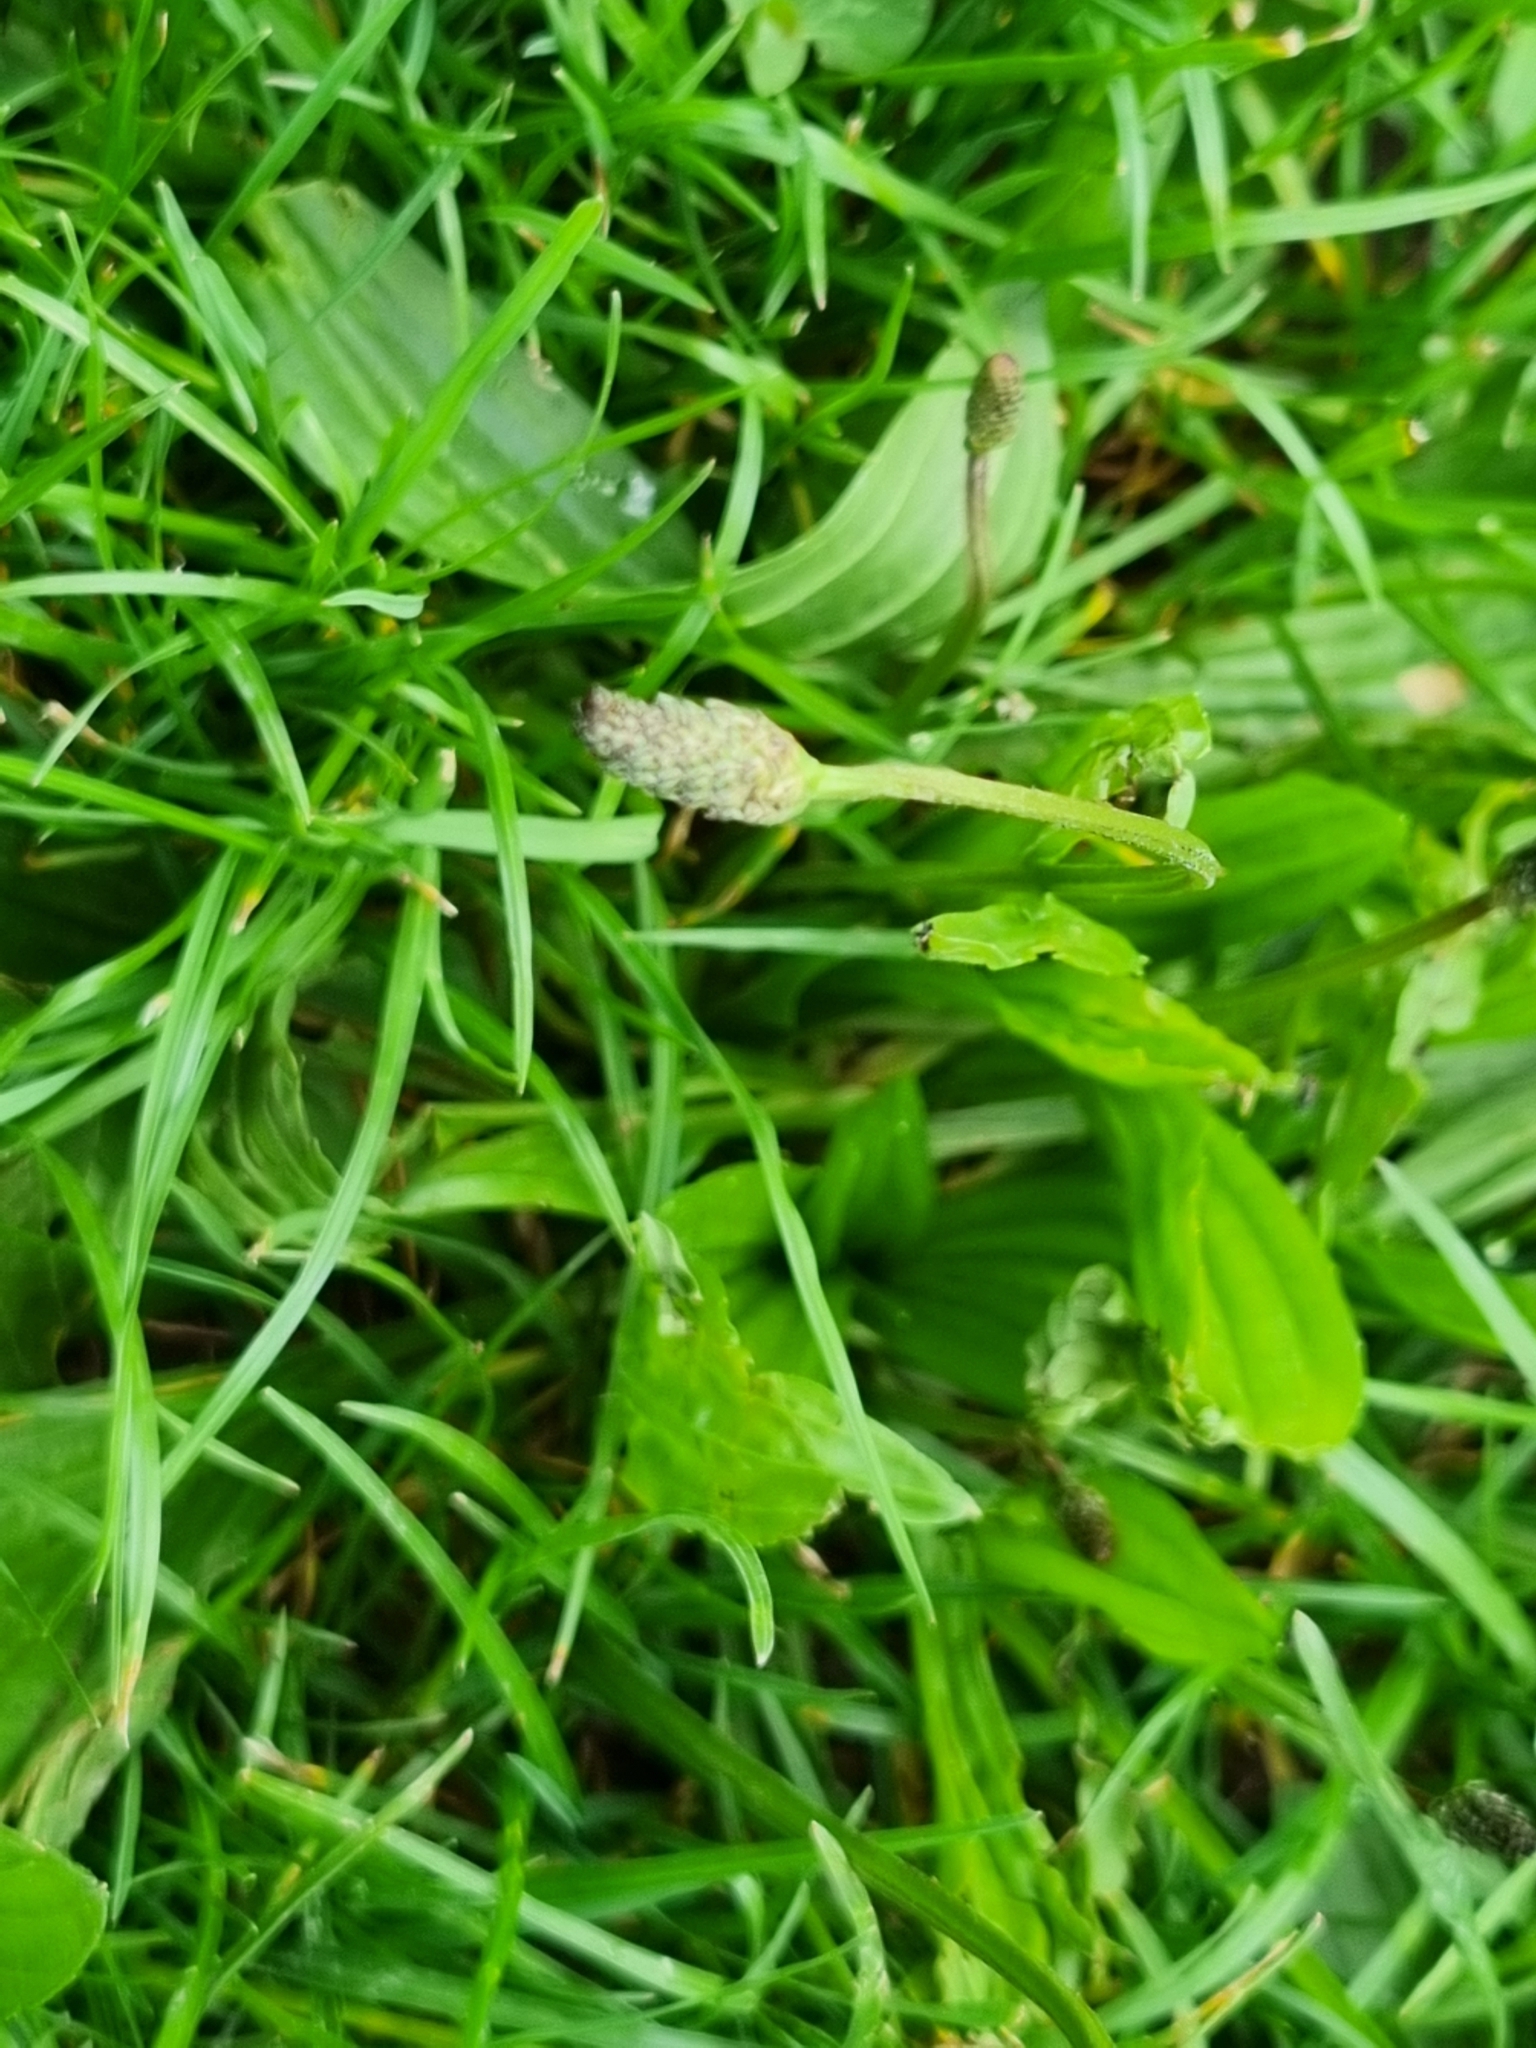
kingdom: Plantae
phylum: Tracheophyta
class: Magnoliopsida
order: Lamiales
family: Plantaginaceae
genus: Plantago
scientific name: Plantago lanceolata
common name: Ribwort plantain
